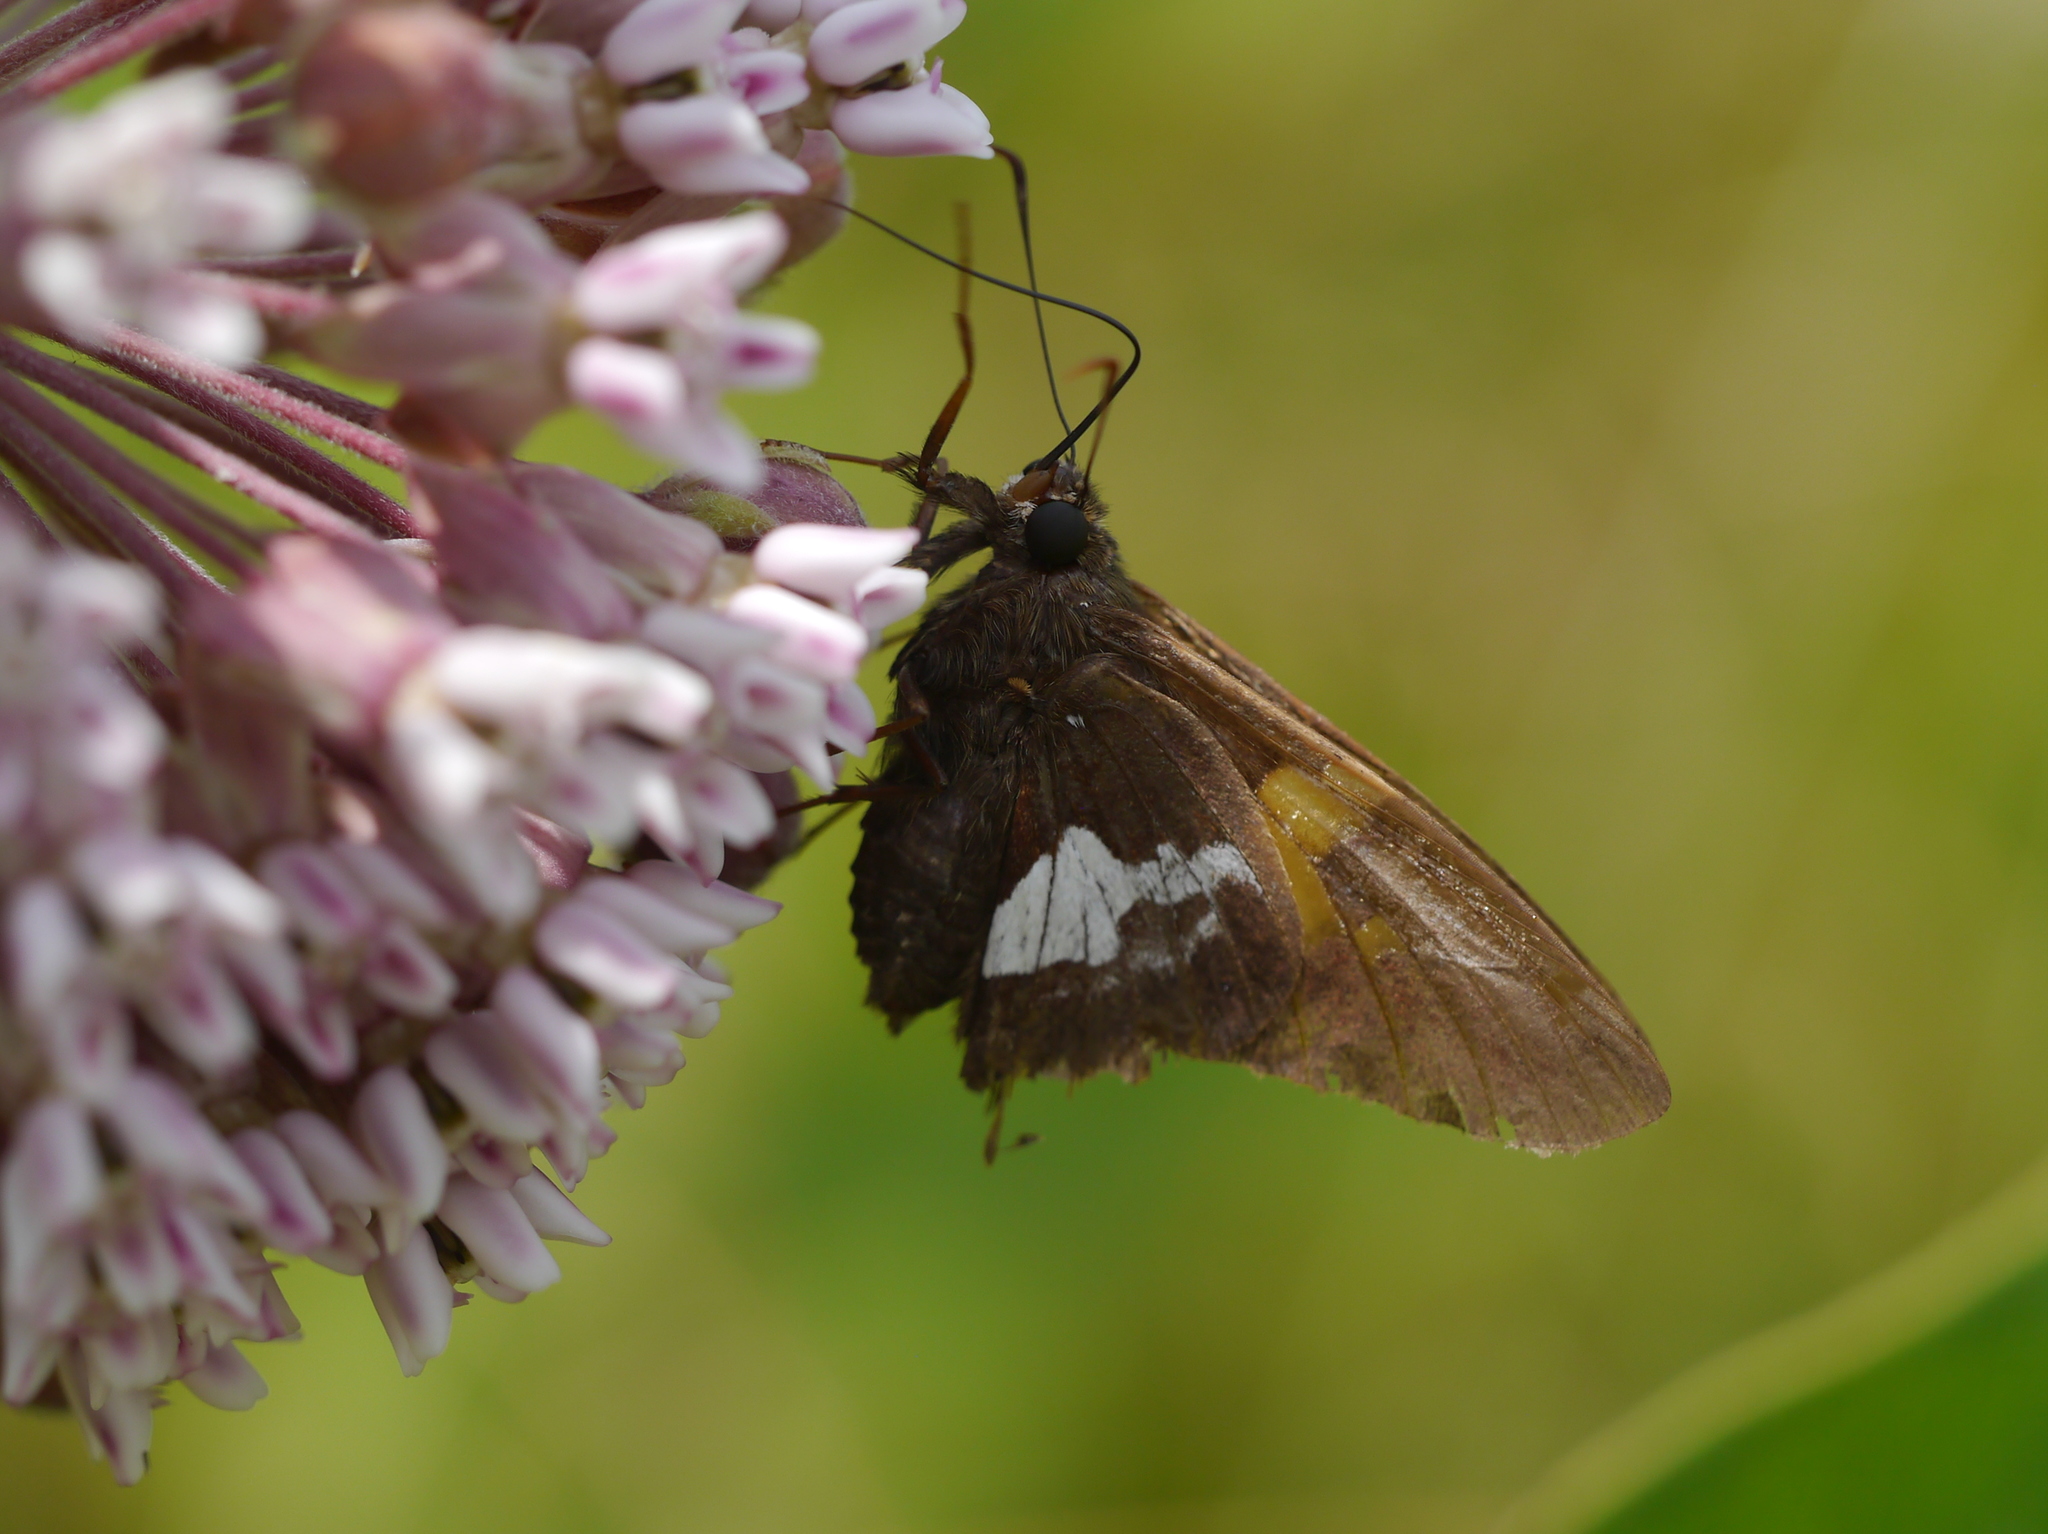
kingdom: Animalia
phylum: Arthropoda
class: Insecta
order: Lepidoptera
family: Hesperiidae
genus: Epargyreus
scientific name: Epargyreus clarus
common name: Silver-spotted skipper
